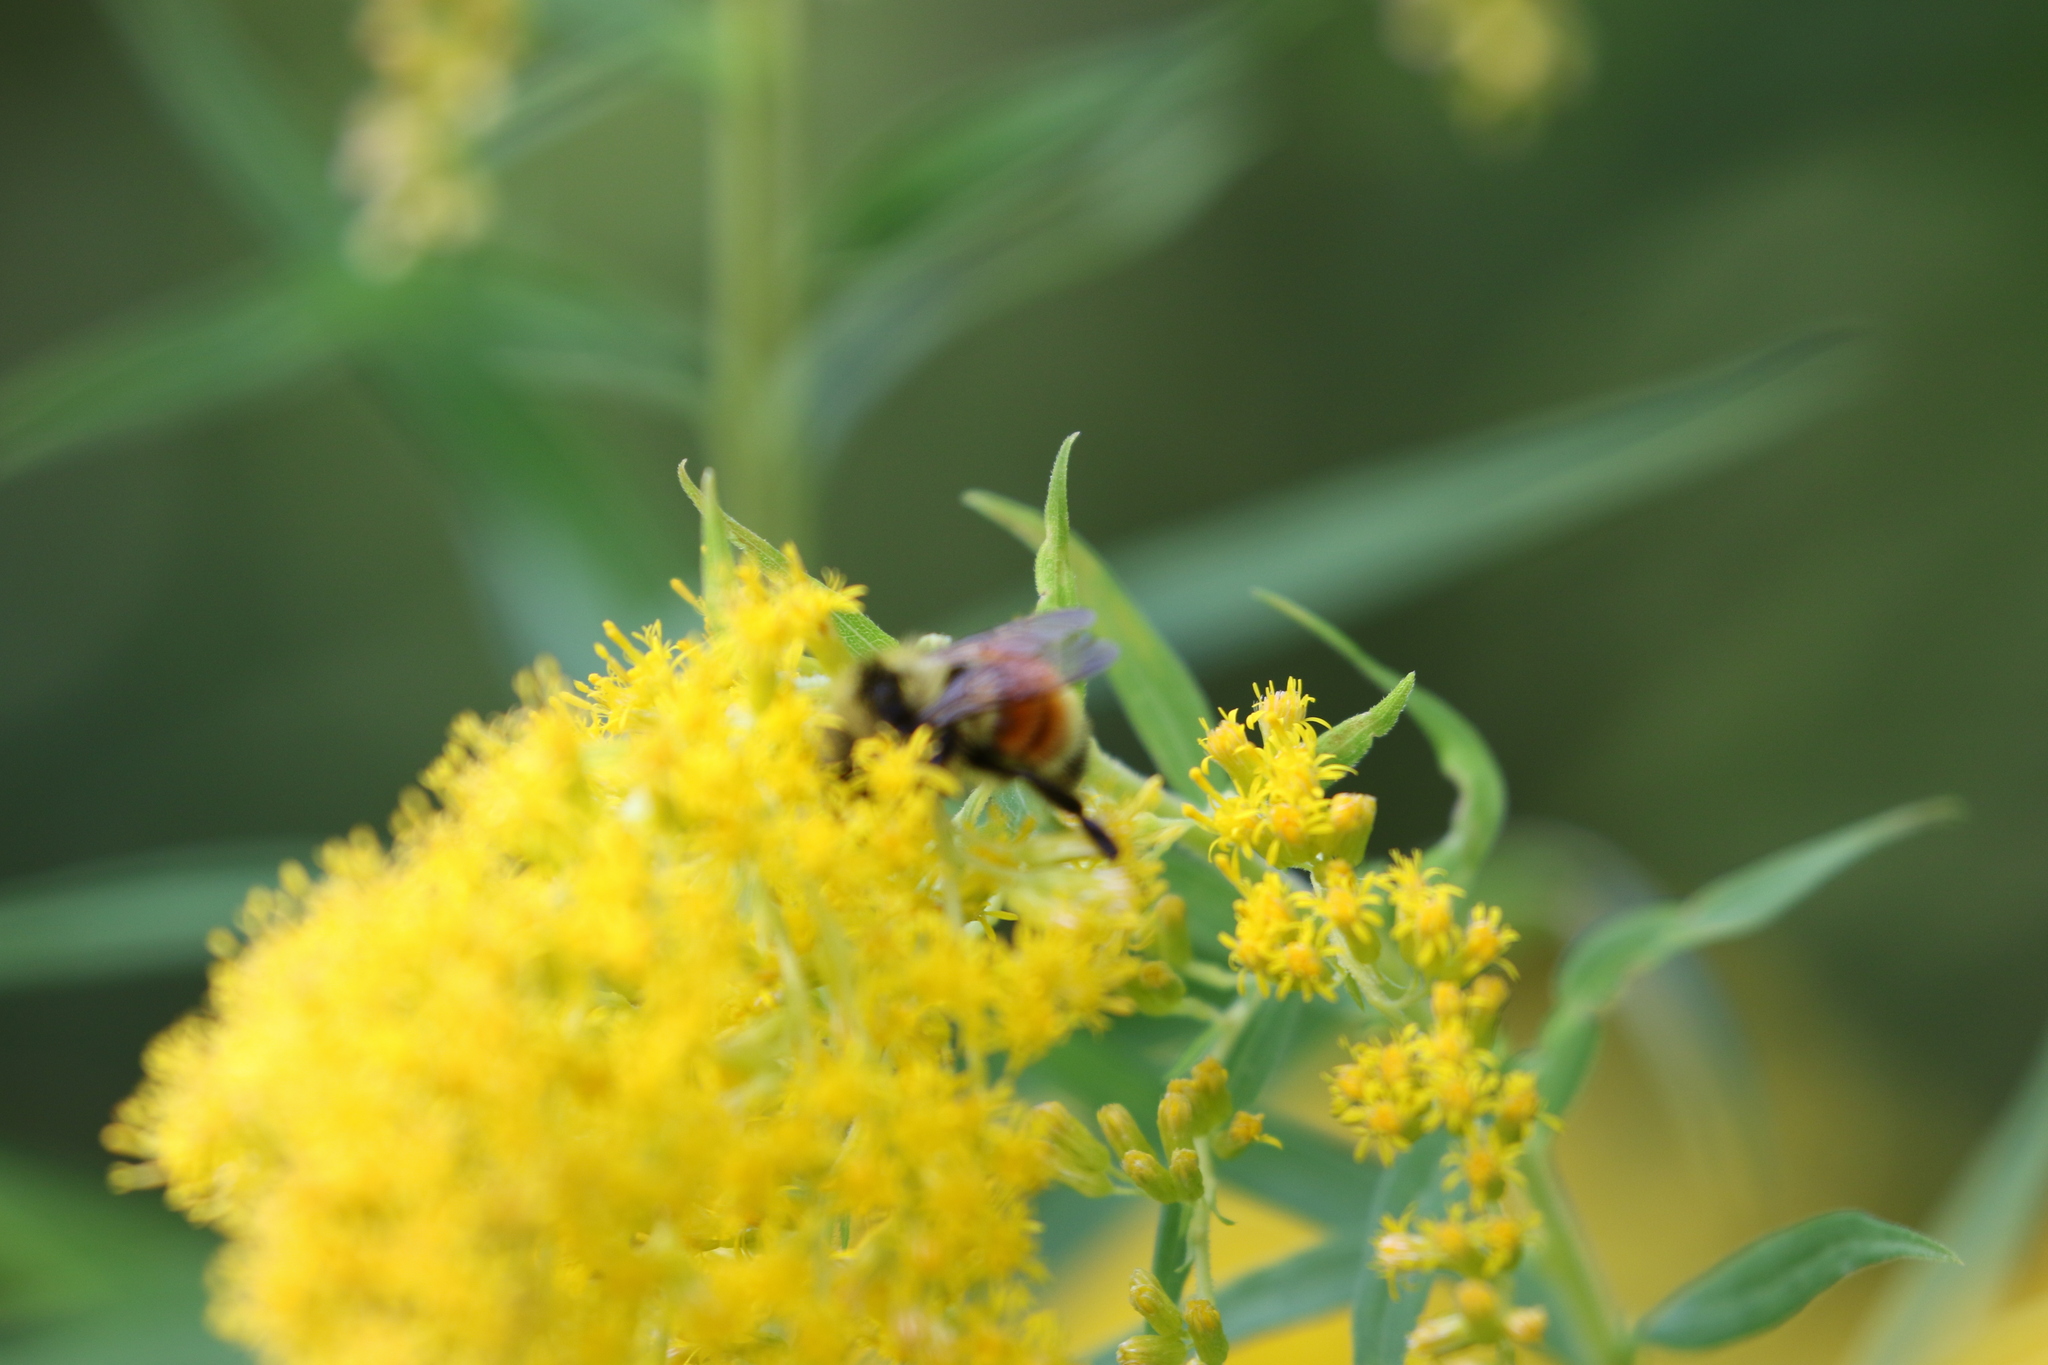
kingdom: Animalia
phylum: Arthropoda
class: Insecta
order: Hymenoptera
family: Apidae
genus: Bombus
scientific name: Bombus ternarius
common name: Tri-colored bumble bee
